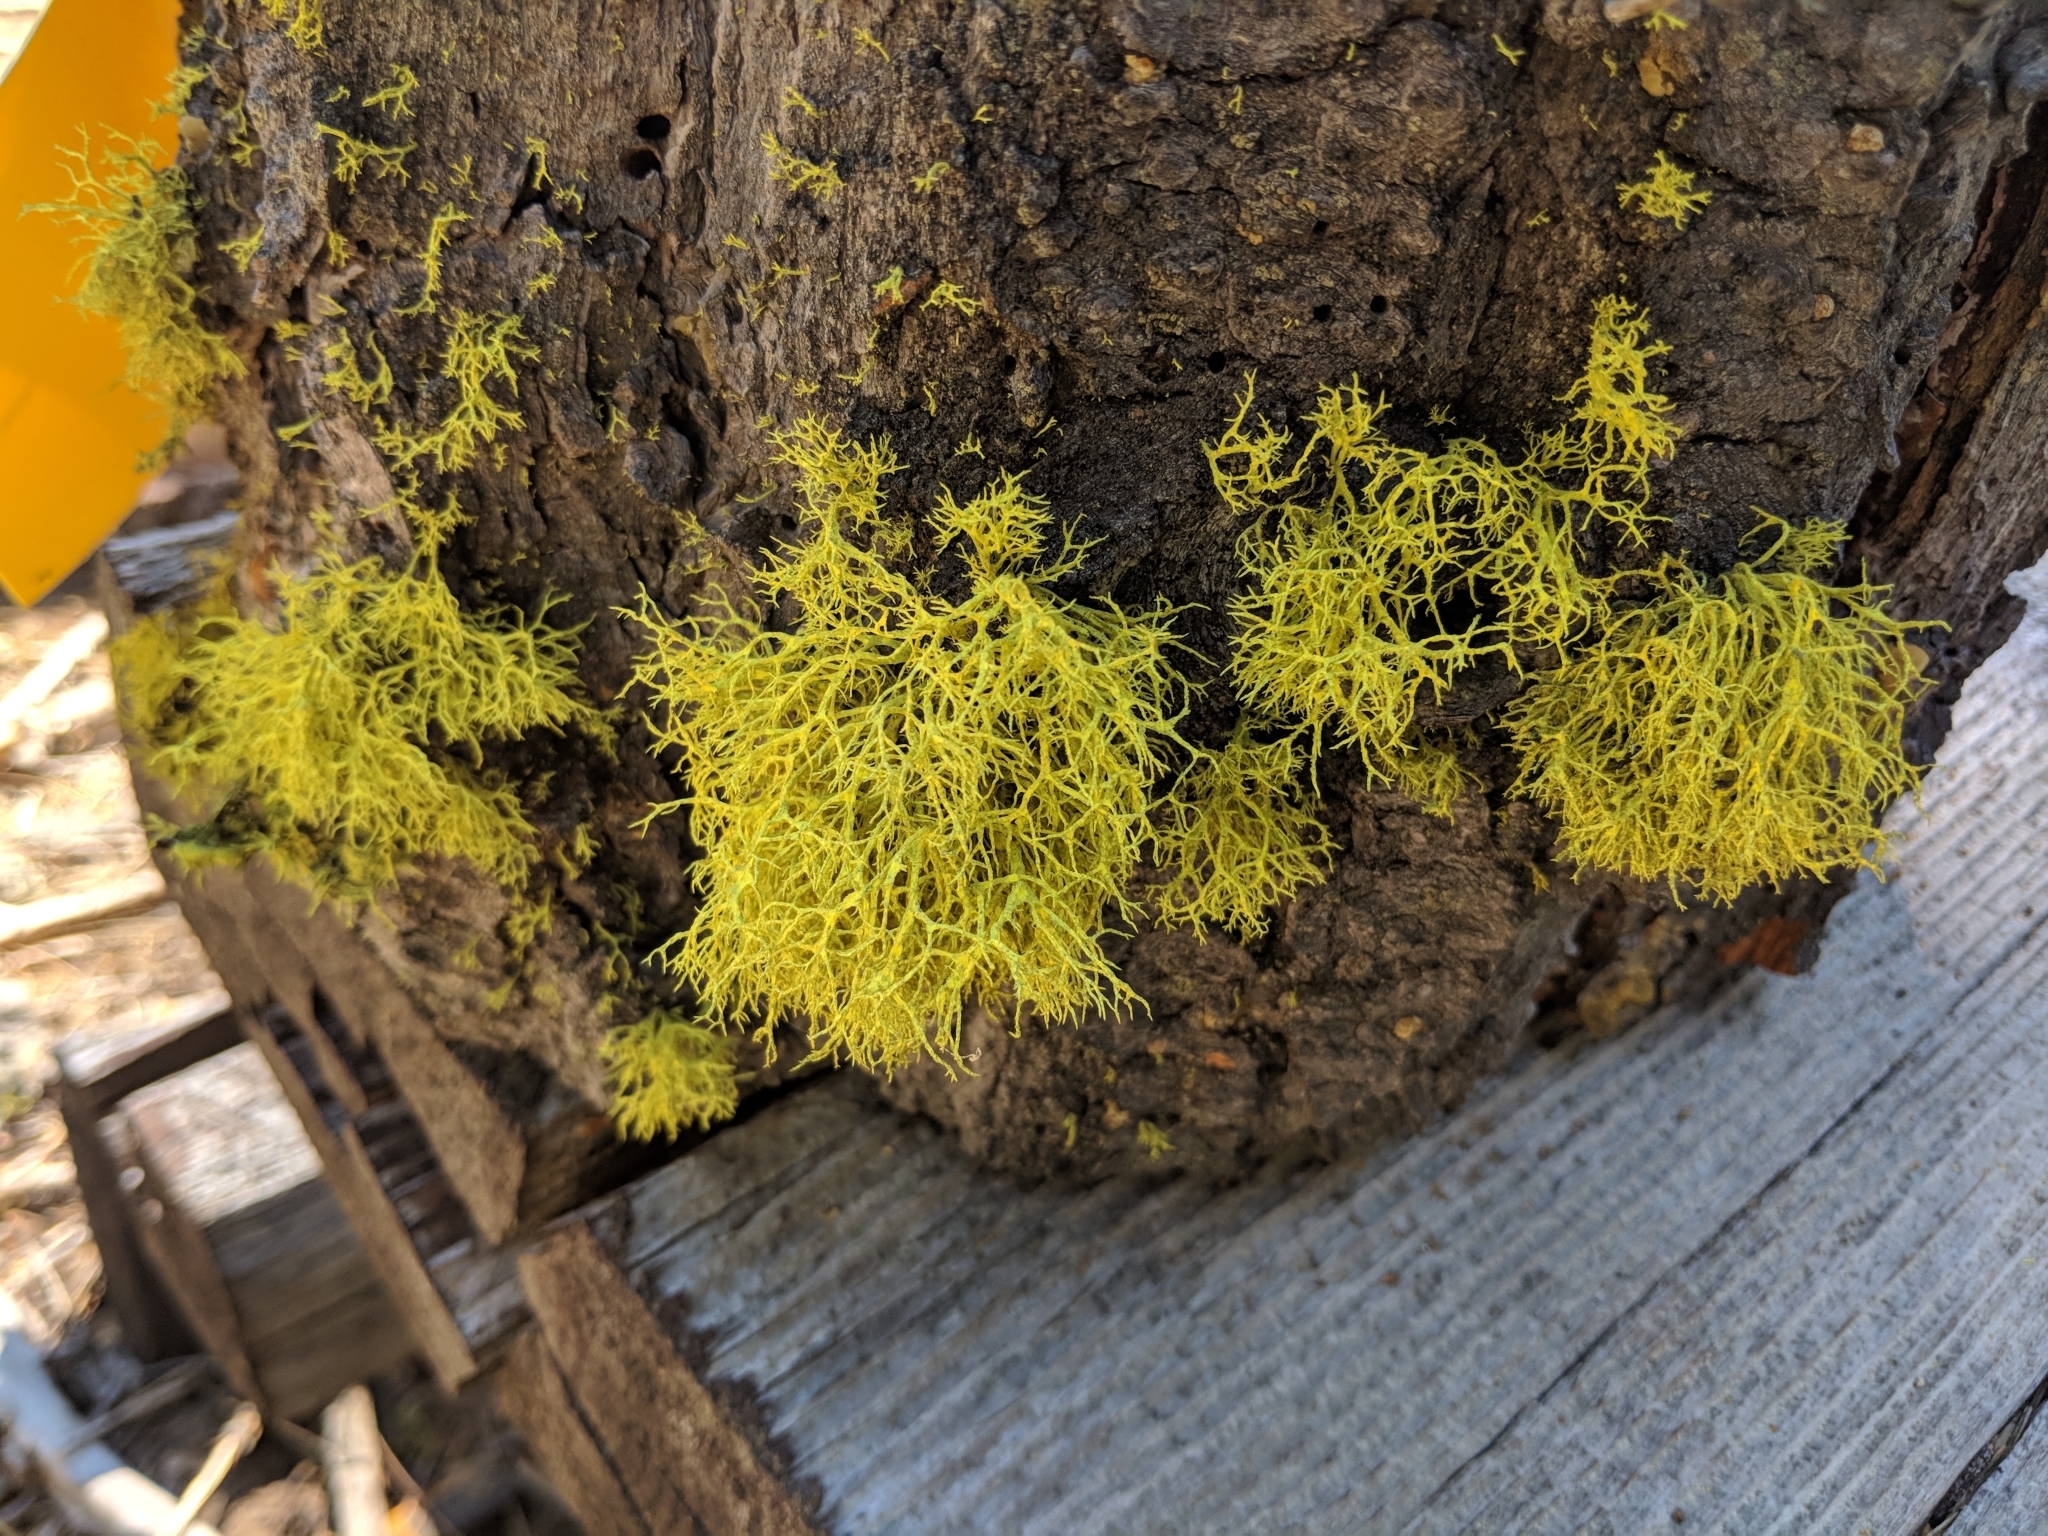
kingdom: Fungi
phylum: Ascomycota
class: Lecanoromycetes
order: Lecanorales
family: Parmeliaceae
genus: Letharia
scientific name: Letharia vulpina
